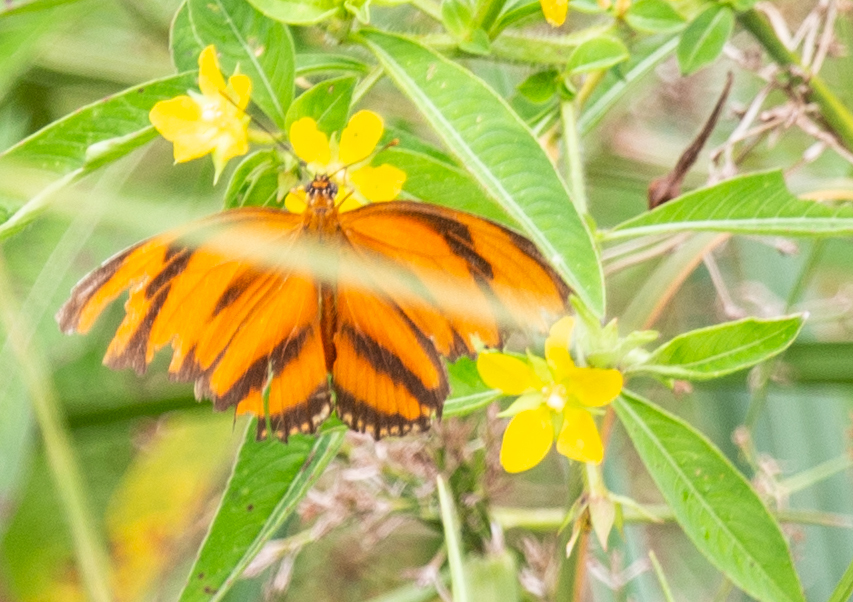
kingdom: Animalia
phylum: Arthropoda
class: Insecta
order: Lepidoptera
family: Nymphalidae
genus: Dryadula
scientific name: Dryadula phaetusa
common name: Banded orange heliconian
